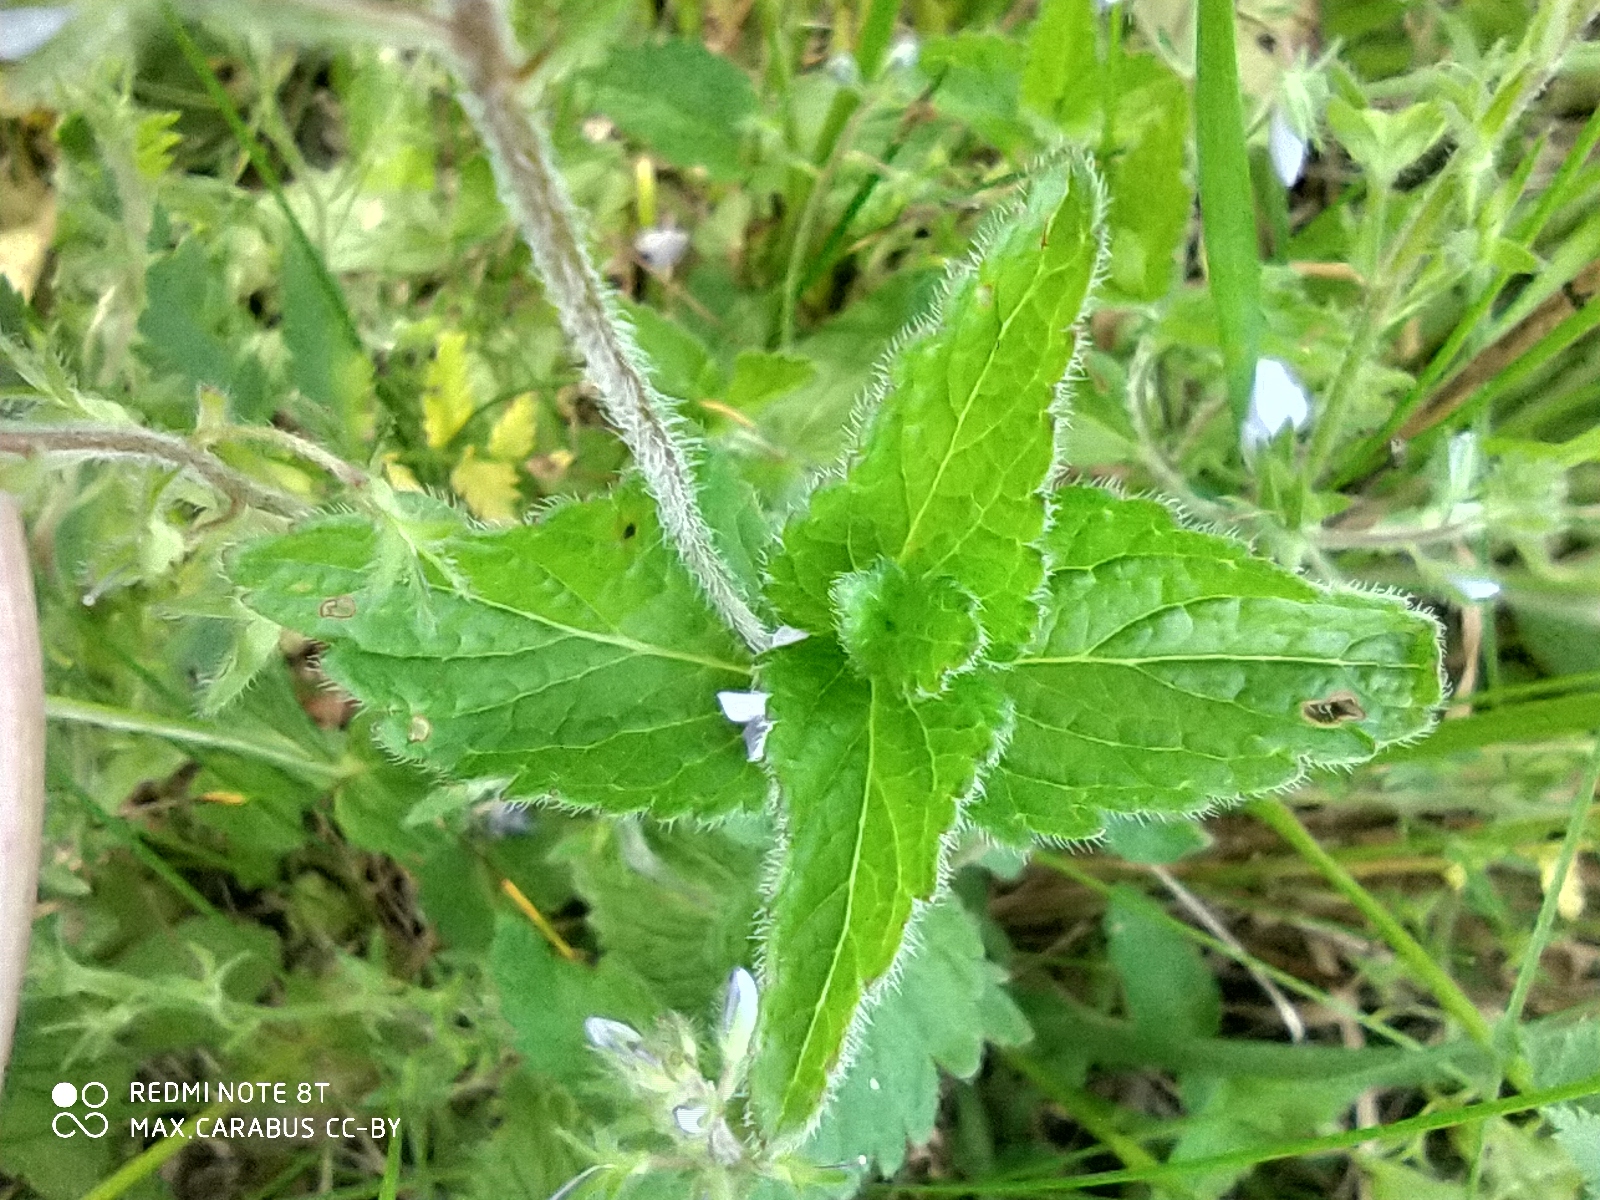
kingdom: Plantae
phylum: Tracheophyta
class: Magnoliopsida
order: Lamiales
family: Plantaginaceae
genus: Veronica
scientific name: Veronica chamaedrys
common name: Germander speedwell
